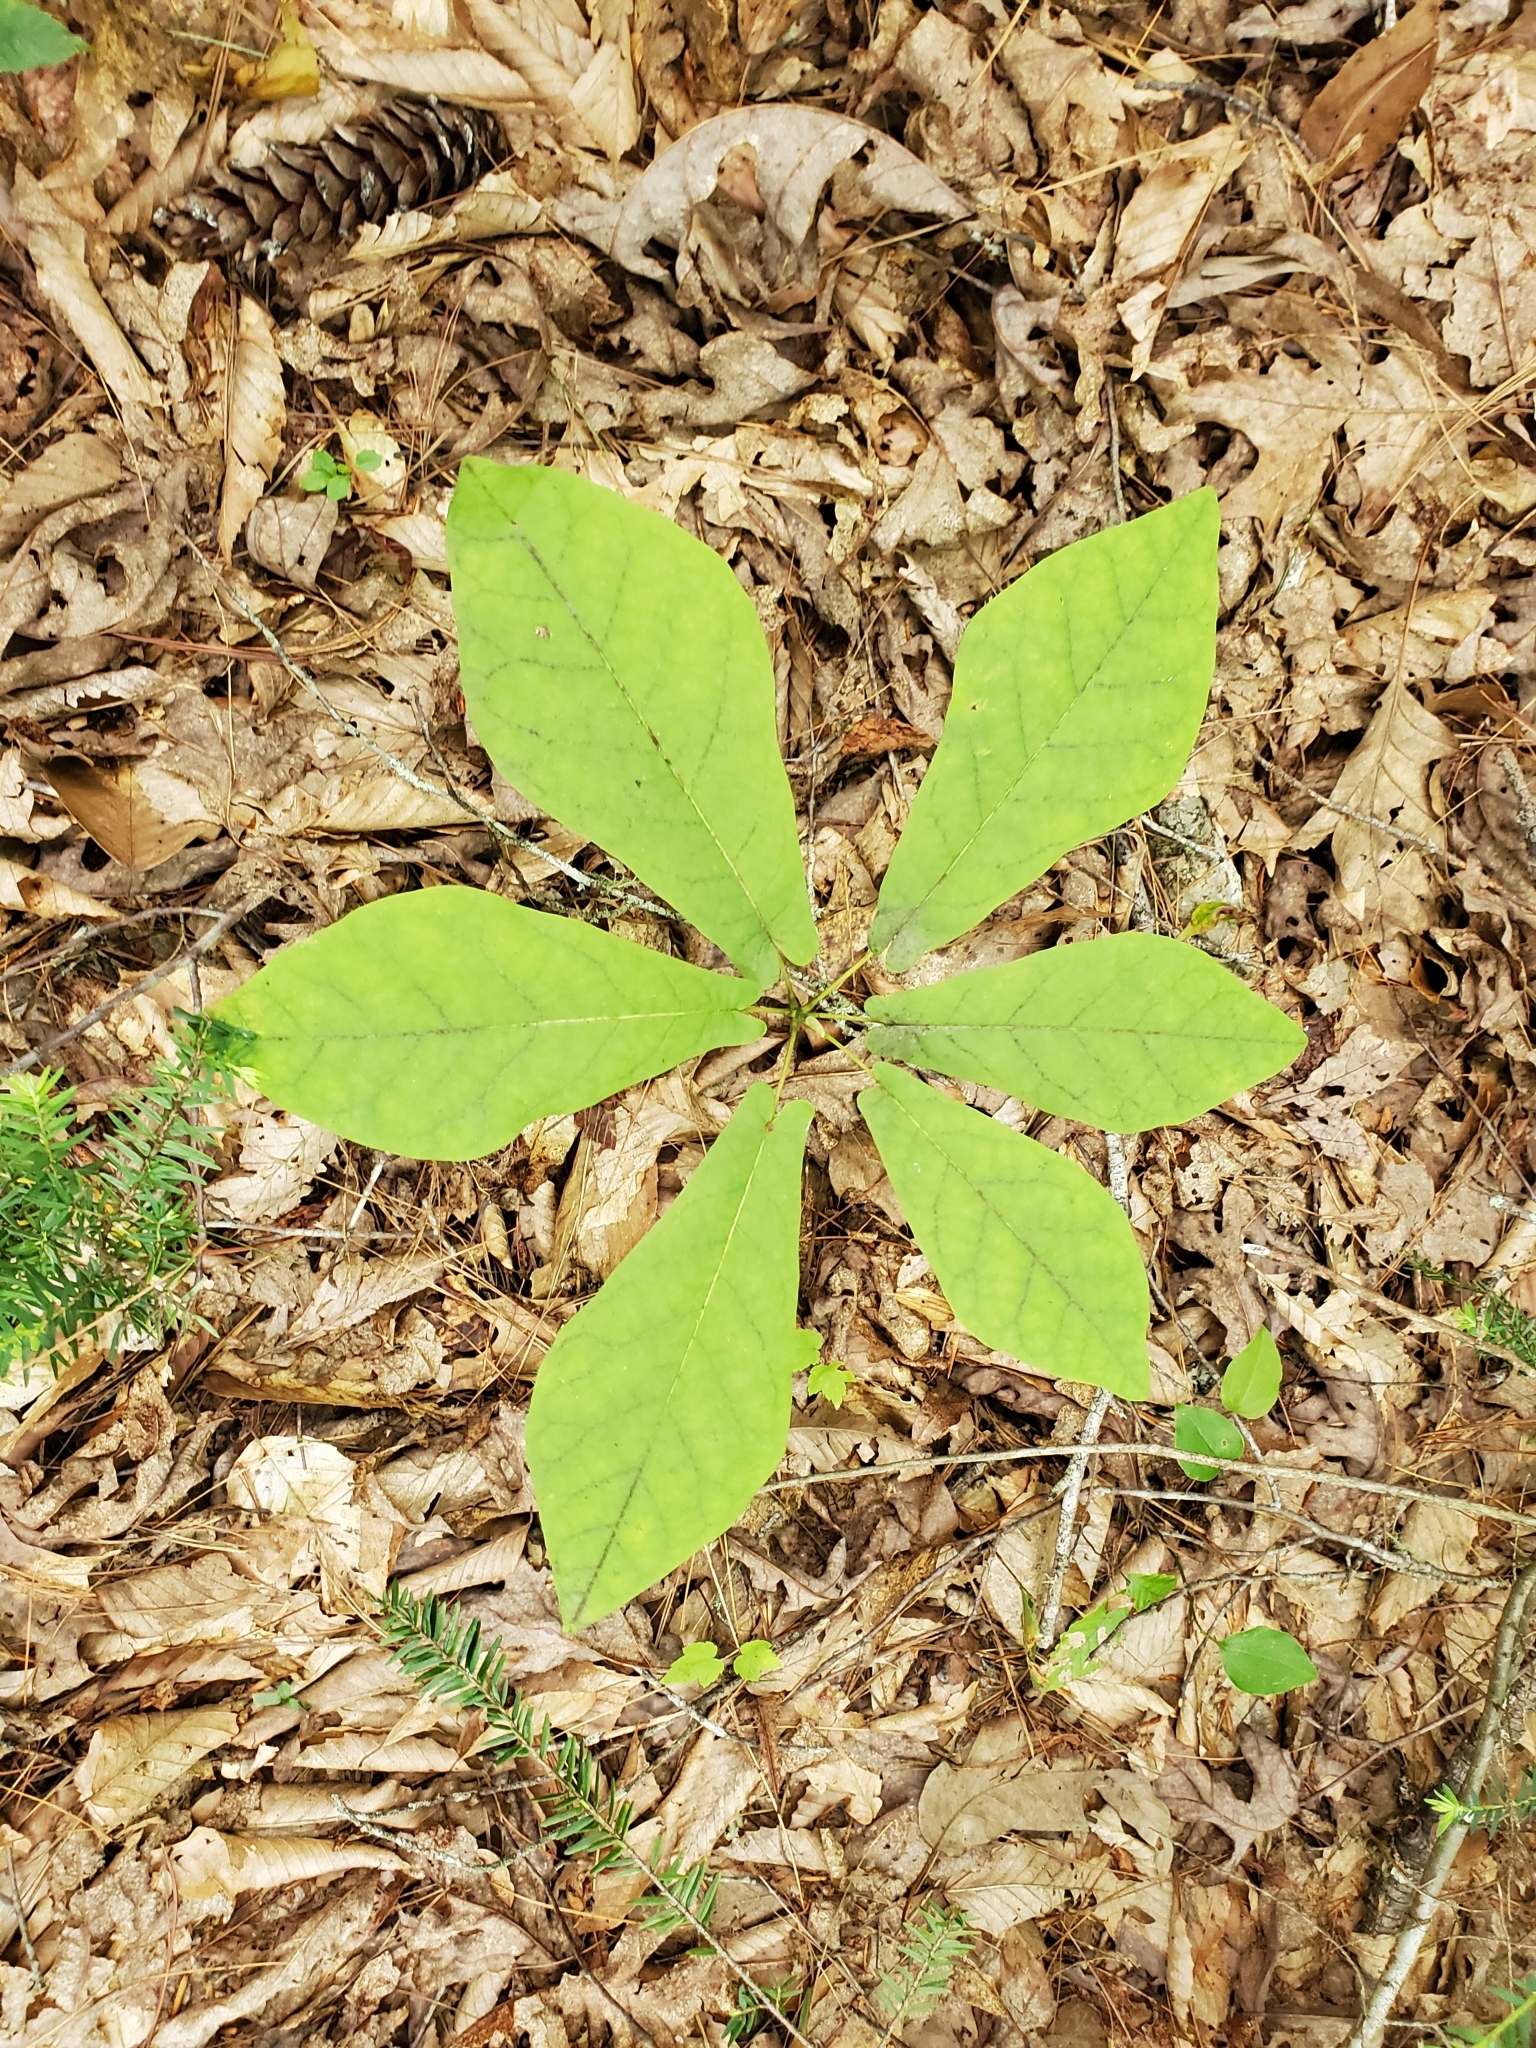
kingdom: Plantae
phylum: Tracheophyta
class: Magnoliopsida
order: Magnoliales
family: Magnoliaceae
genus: Magnolia
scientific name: Magnolia fraseri
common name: Fraser's magnolia
